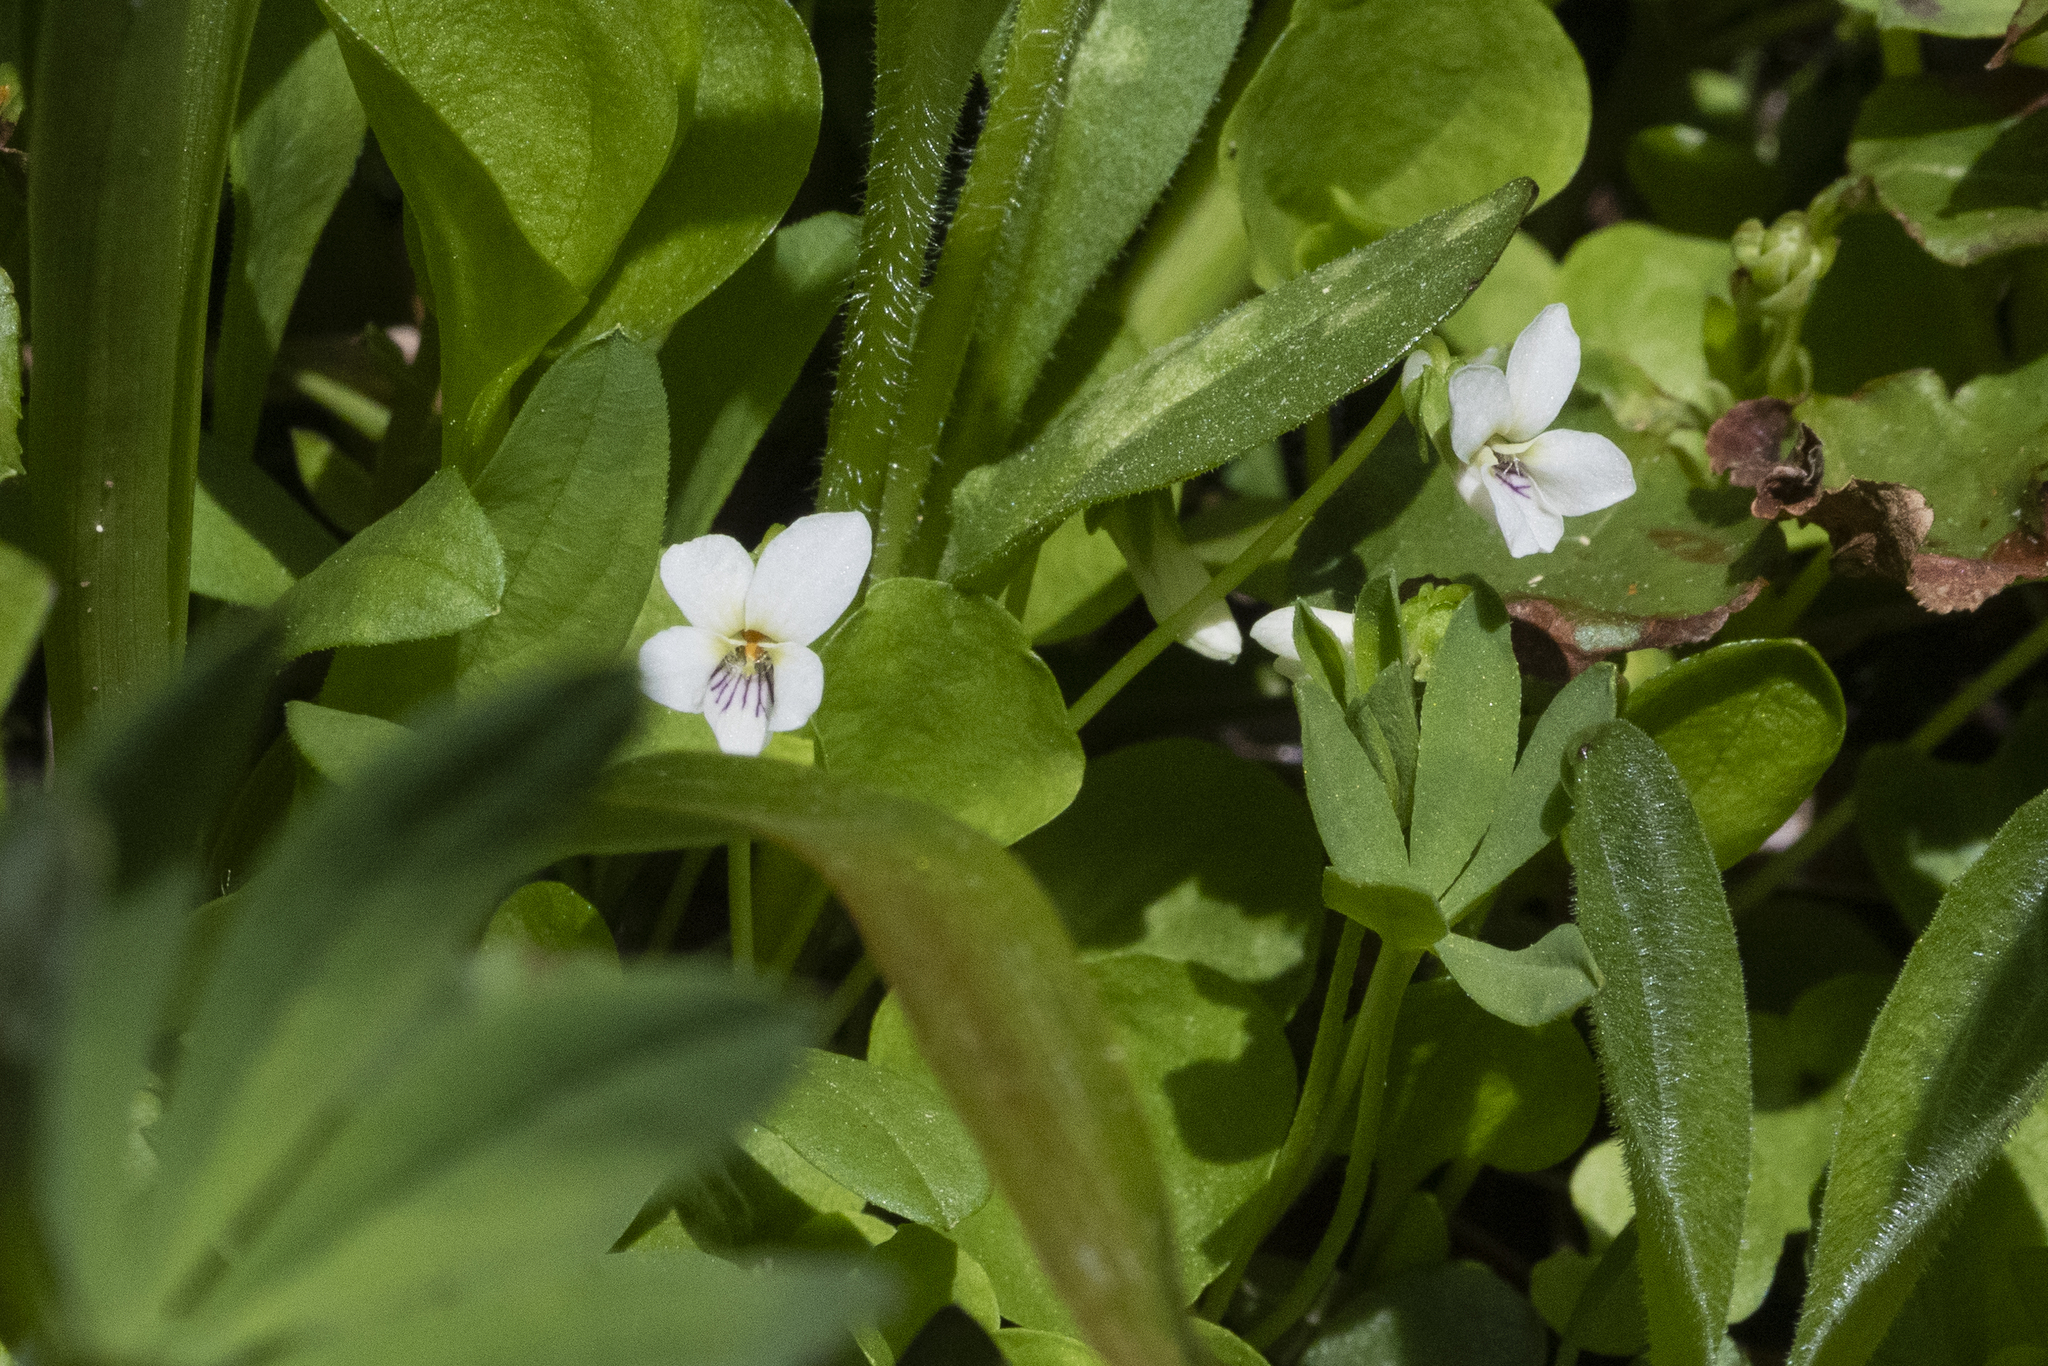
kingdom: Plantae
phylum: Tracheophyta
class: Magnoliopsida
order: Malpighiales
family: Violaceae
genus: Viola
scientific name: Viola macloskeyi
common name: Macloskey's violet
